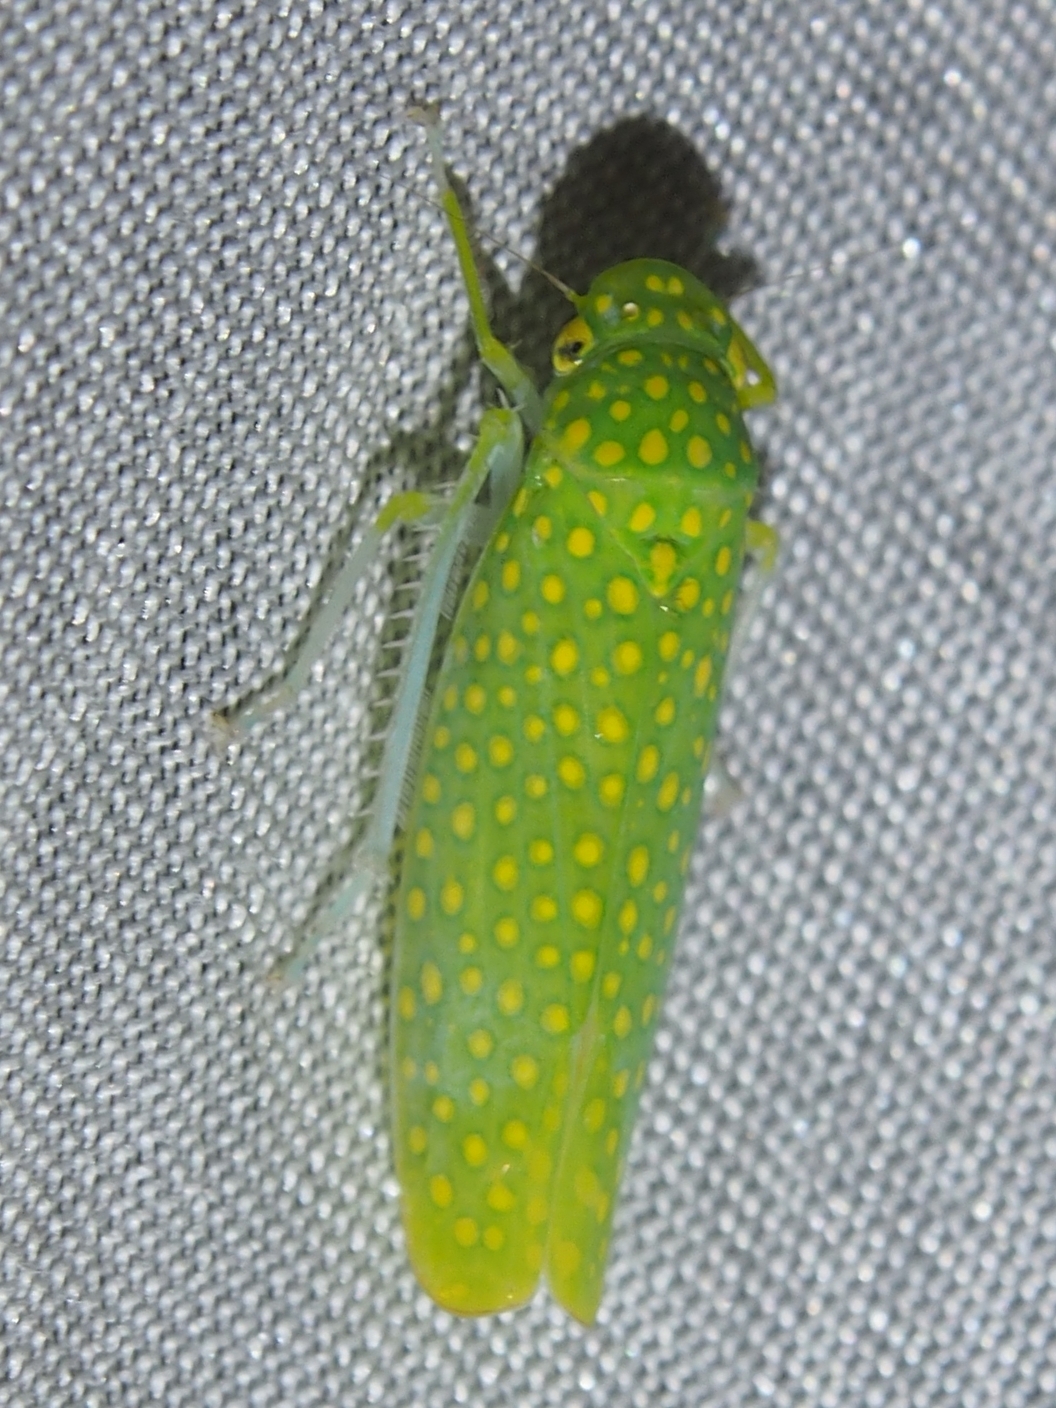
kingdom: Animalia
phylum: Arthropoda
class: Insecta
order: Hemiptera
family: Cicadellidae
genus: Paromenia
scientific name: Paromenia isabellina
